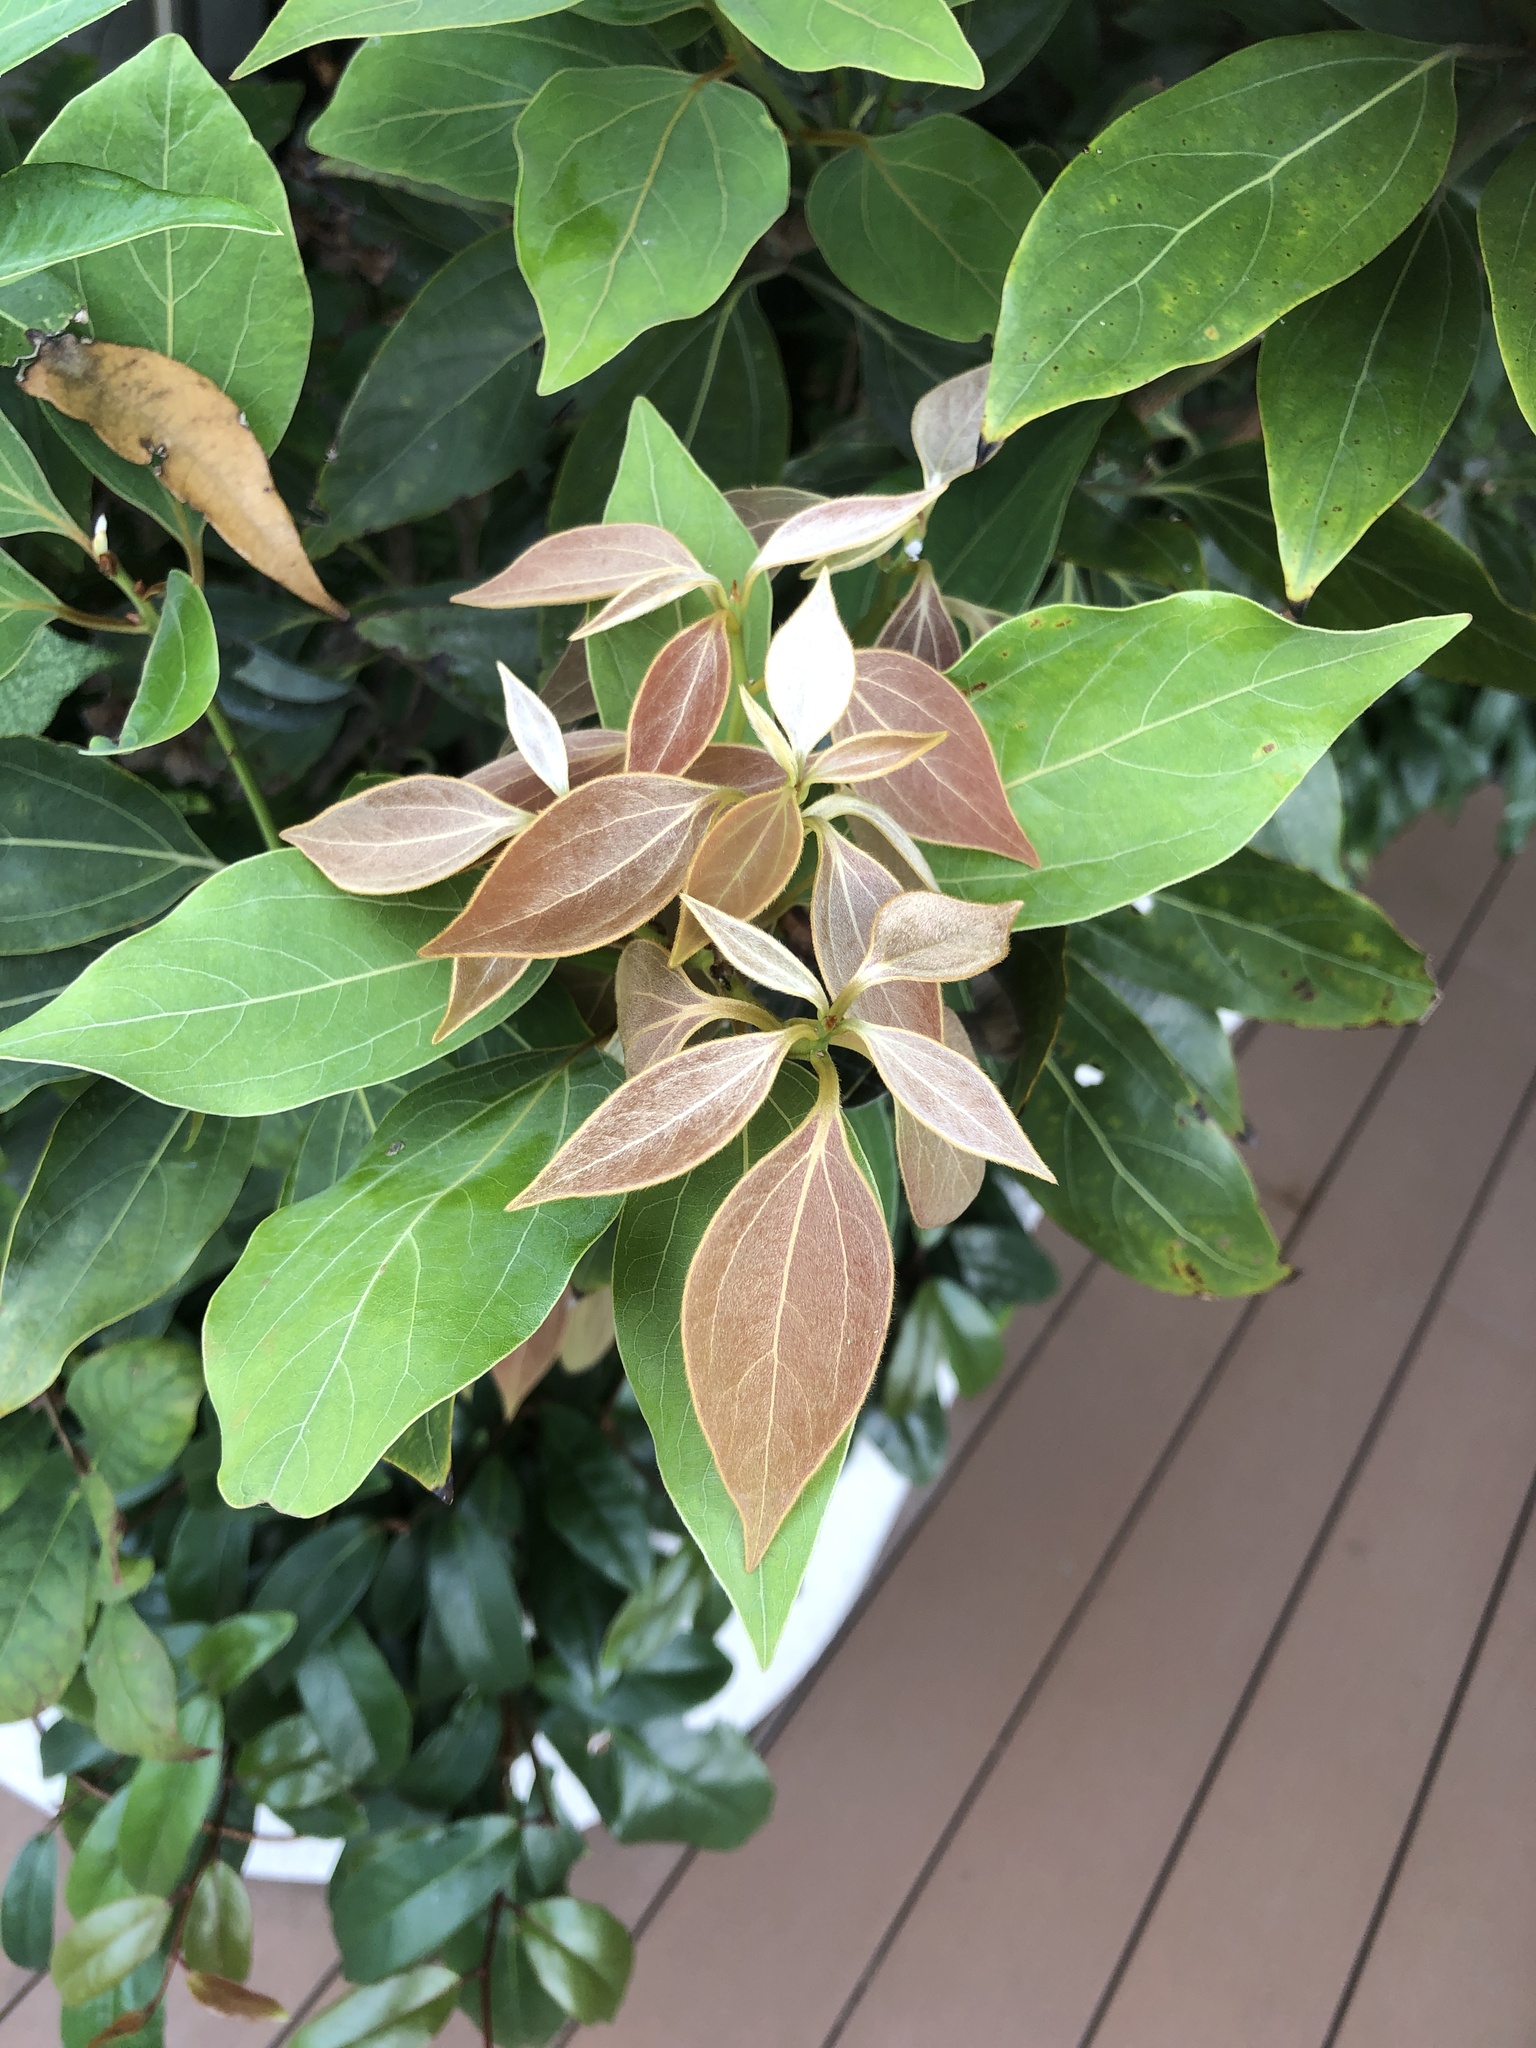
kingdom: Plantae
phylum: Tracheophyta
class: Magnoliopsida
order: Laurales
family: Lauraceae
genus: Neolitsea
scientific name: Neolitsea sericea
